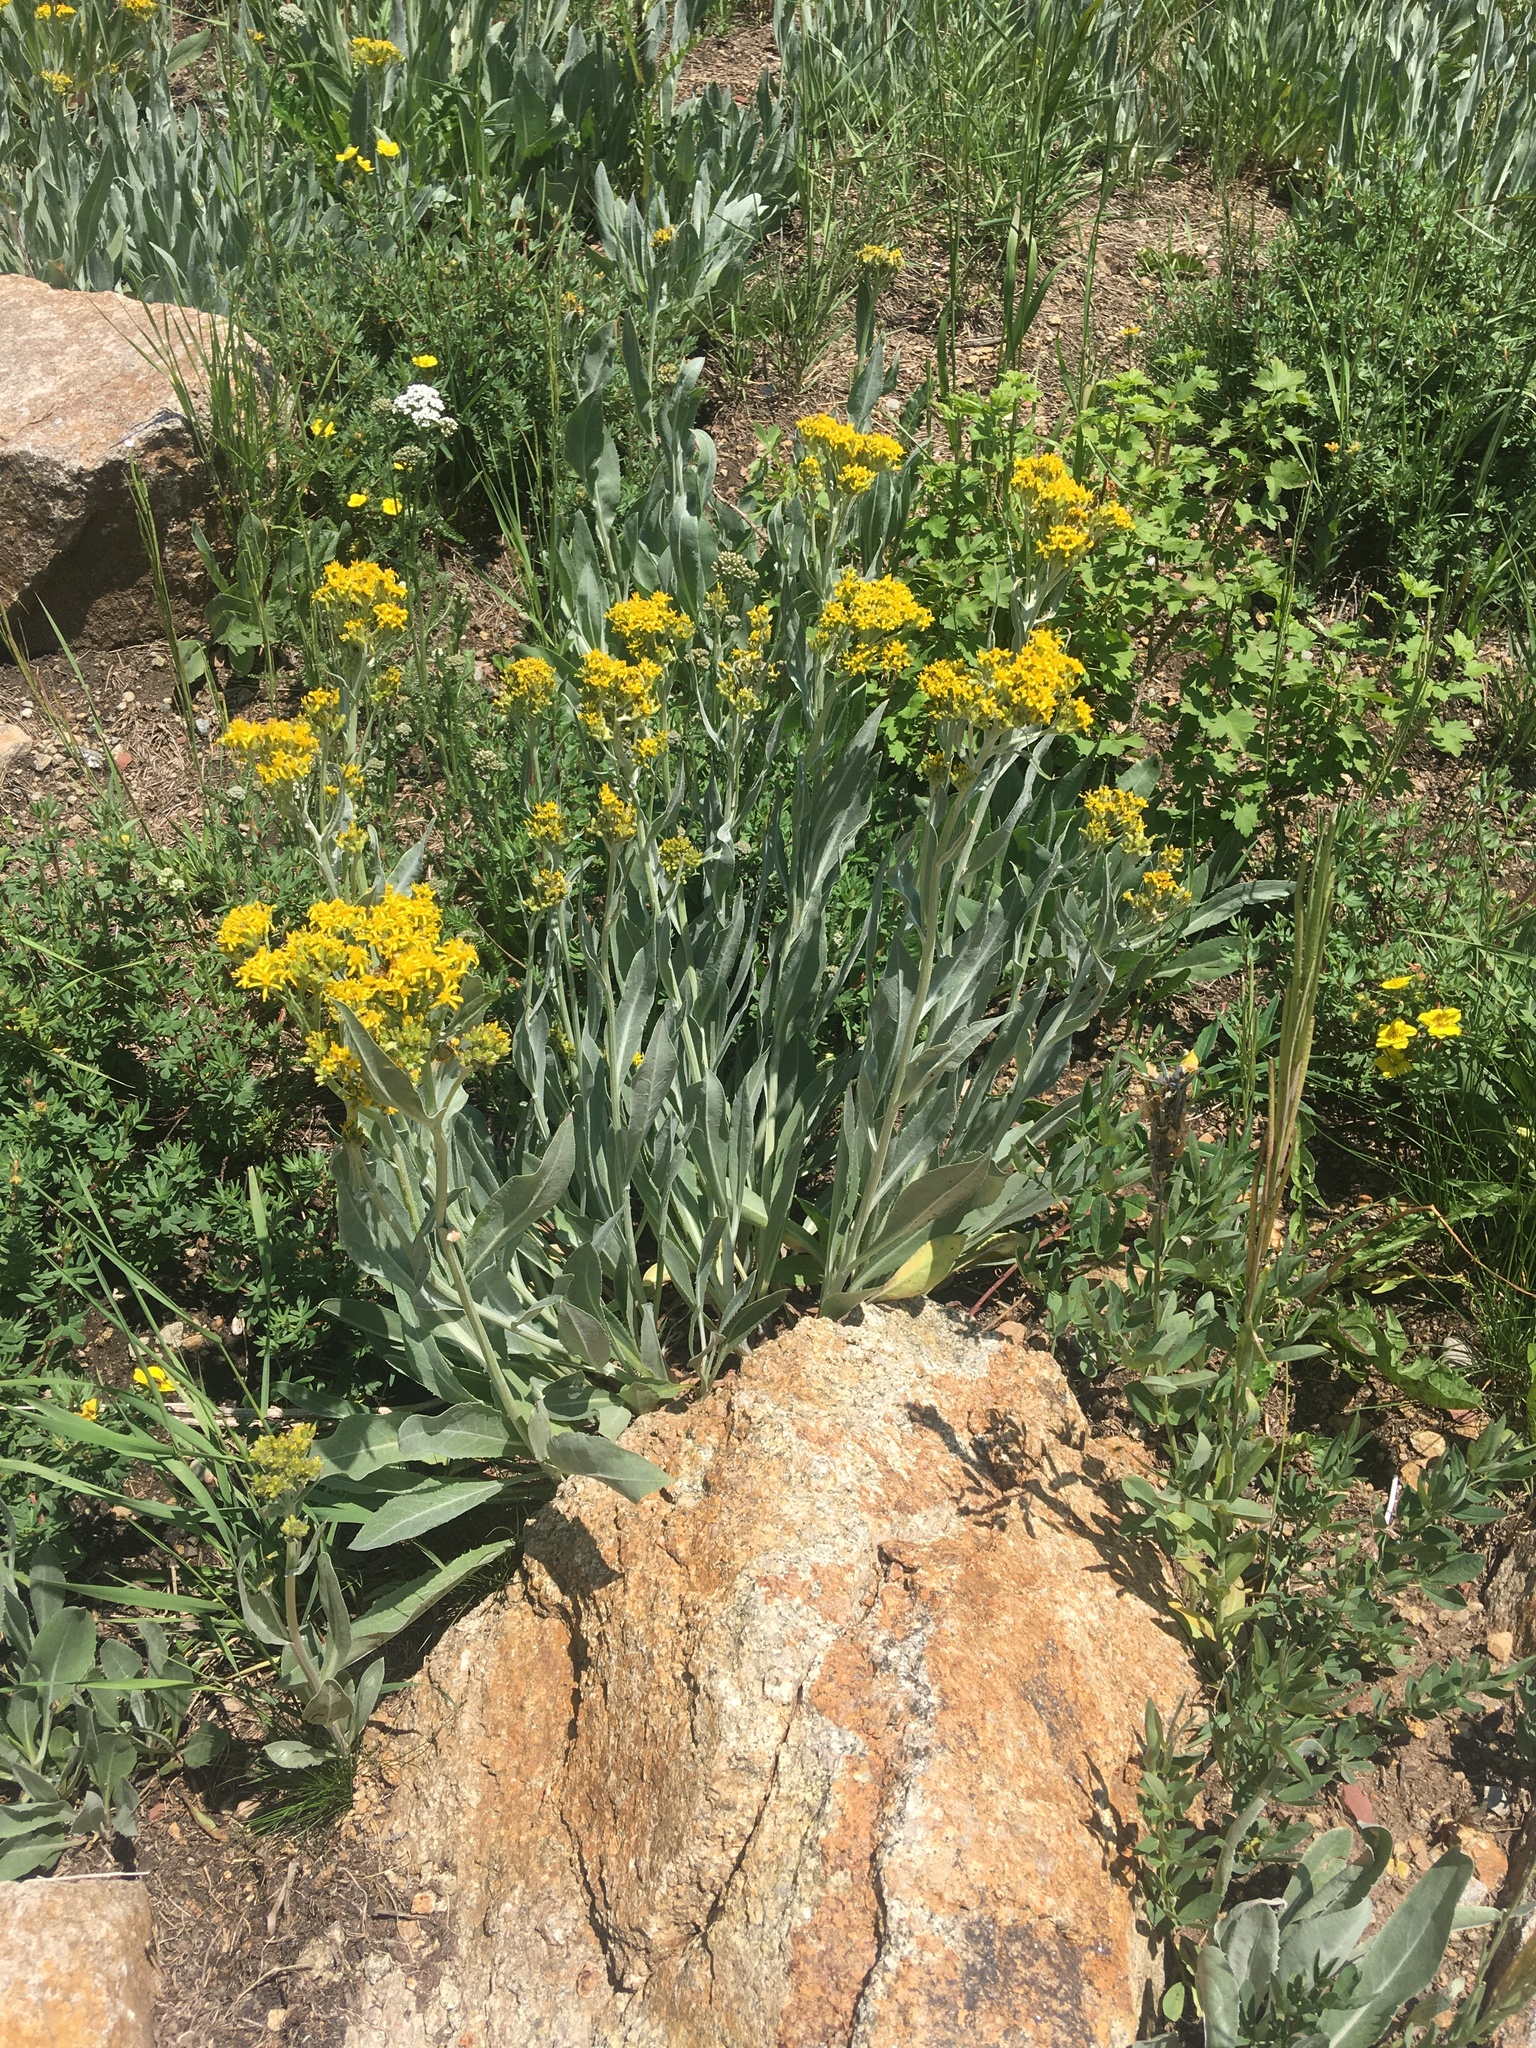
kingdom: Plantae
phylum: Tracheophyta
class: Magnoliopsida
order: Asterales
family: Asteraceae
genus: Senecio
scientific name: Senecio atratus
